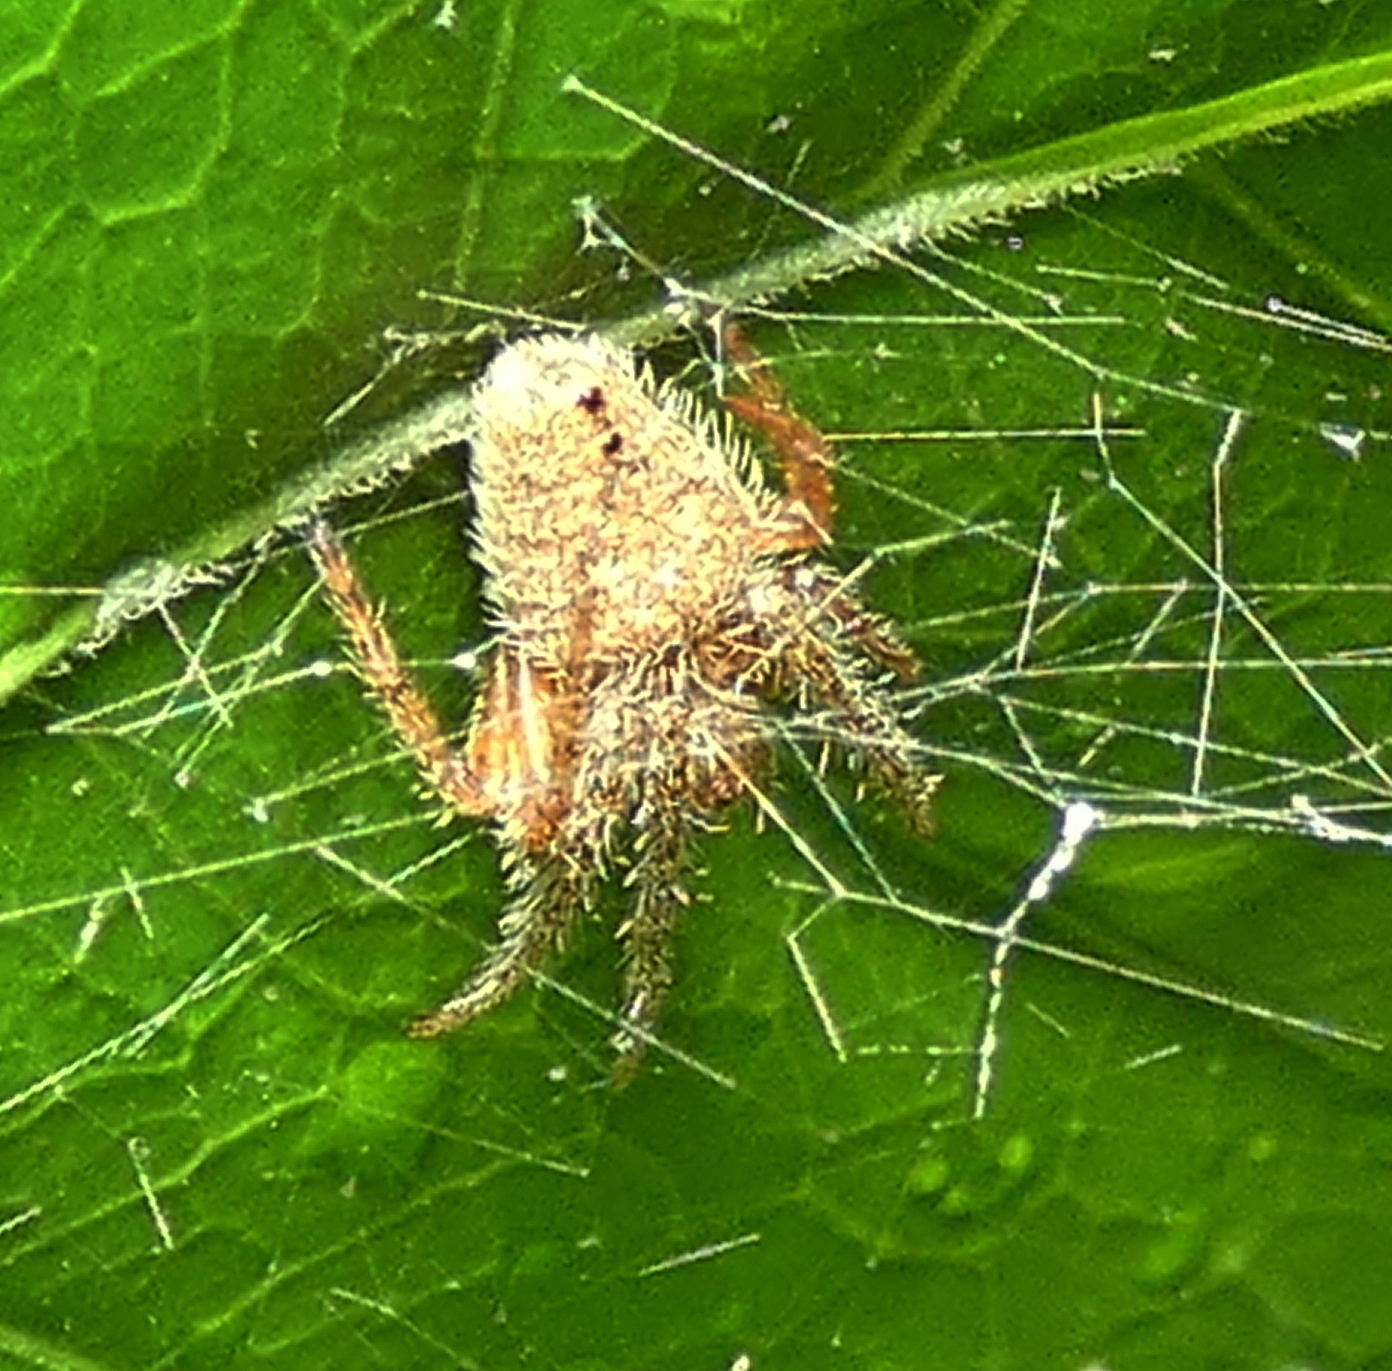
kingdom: Animalia
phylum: Arthropoda
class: Arachnida
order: Araneae
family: Araneidae
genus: Eriophora
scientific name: Eriophora edax
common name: Orb weavers
